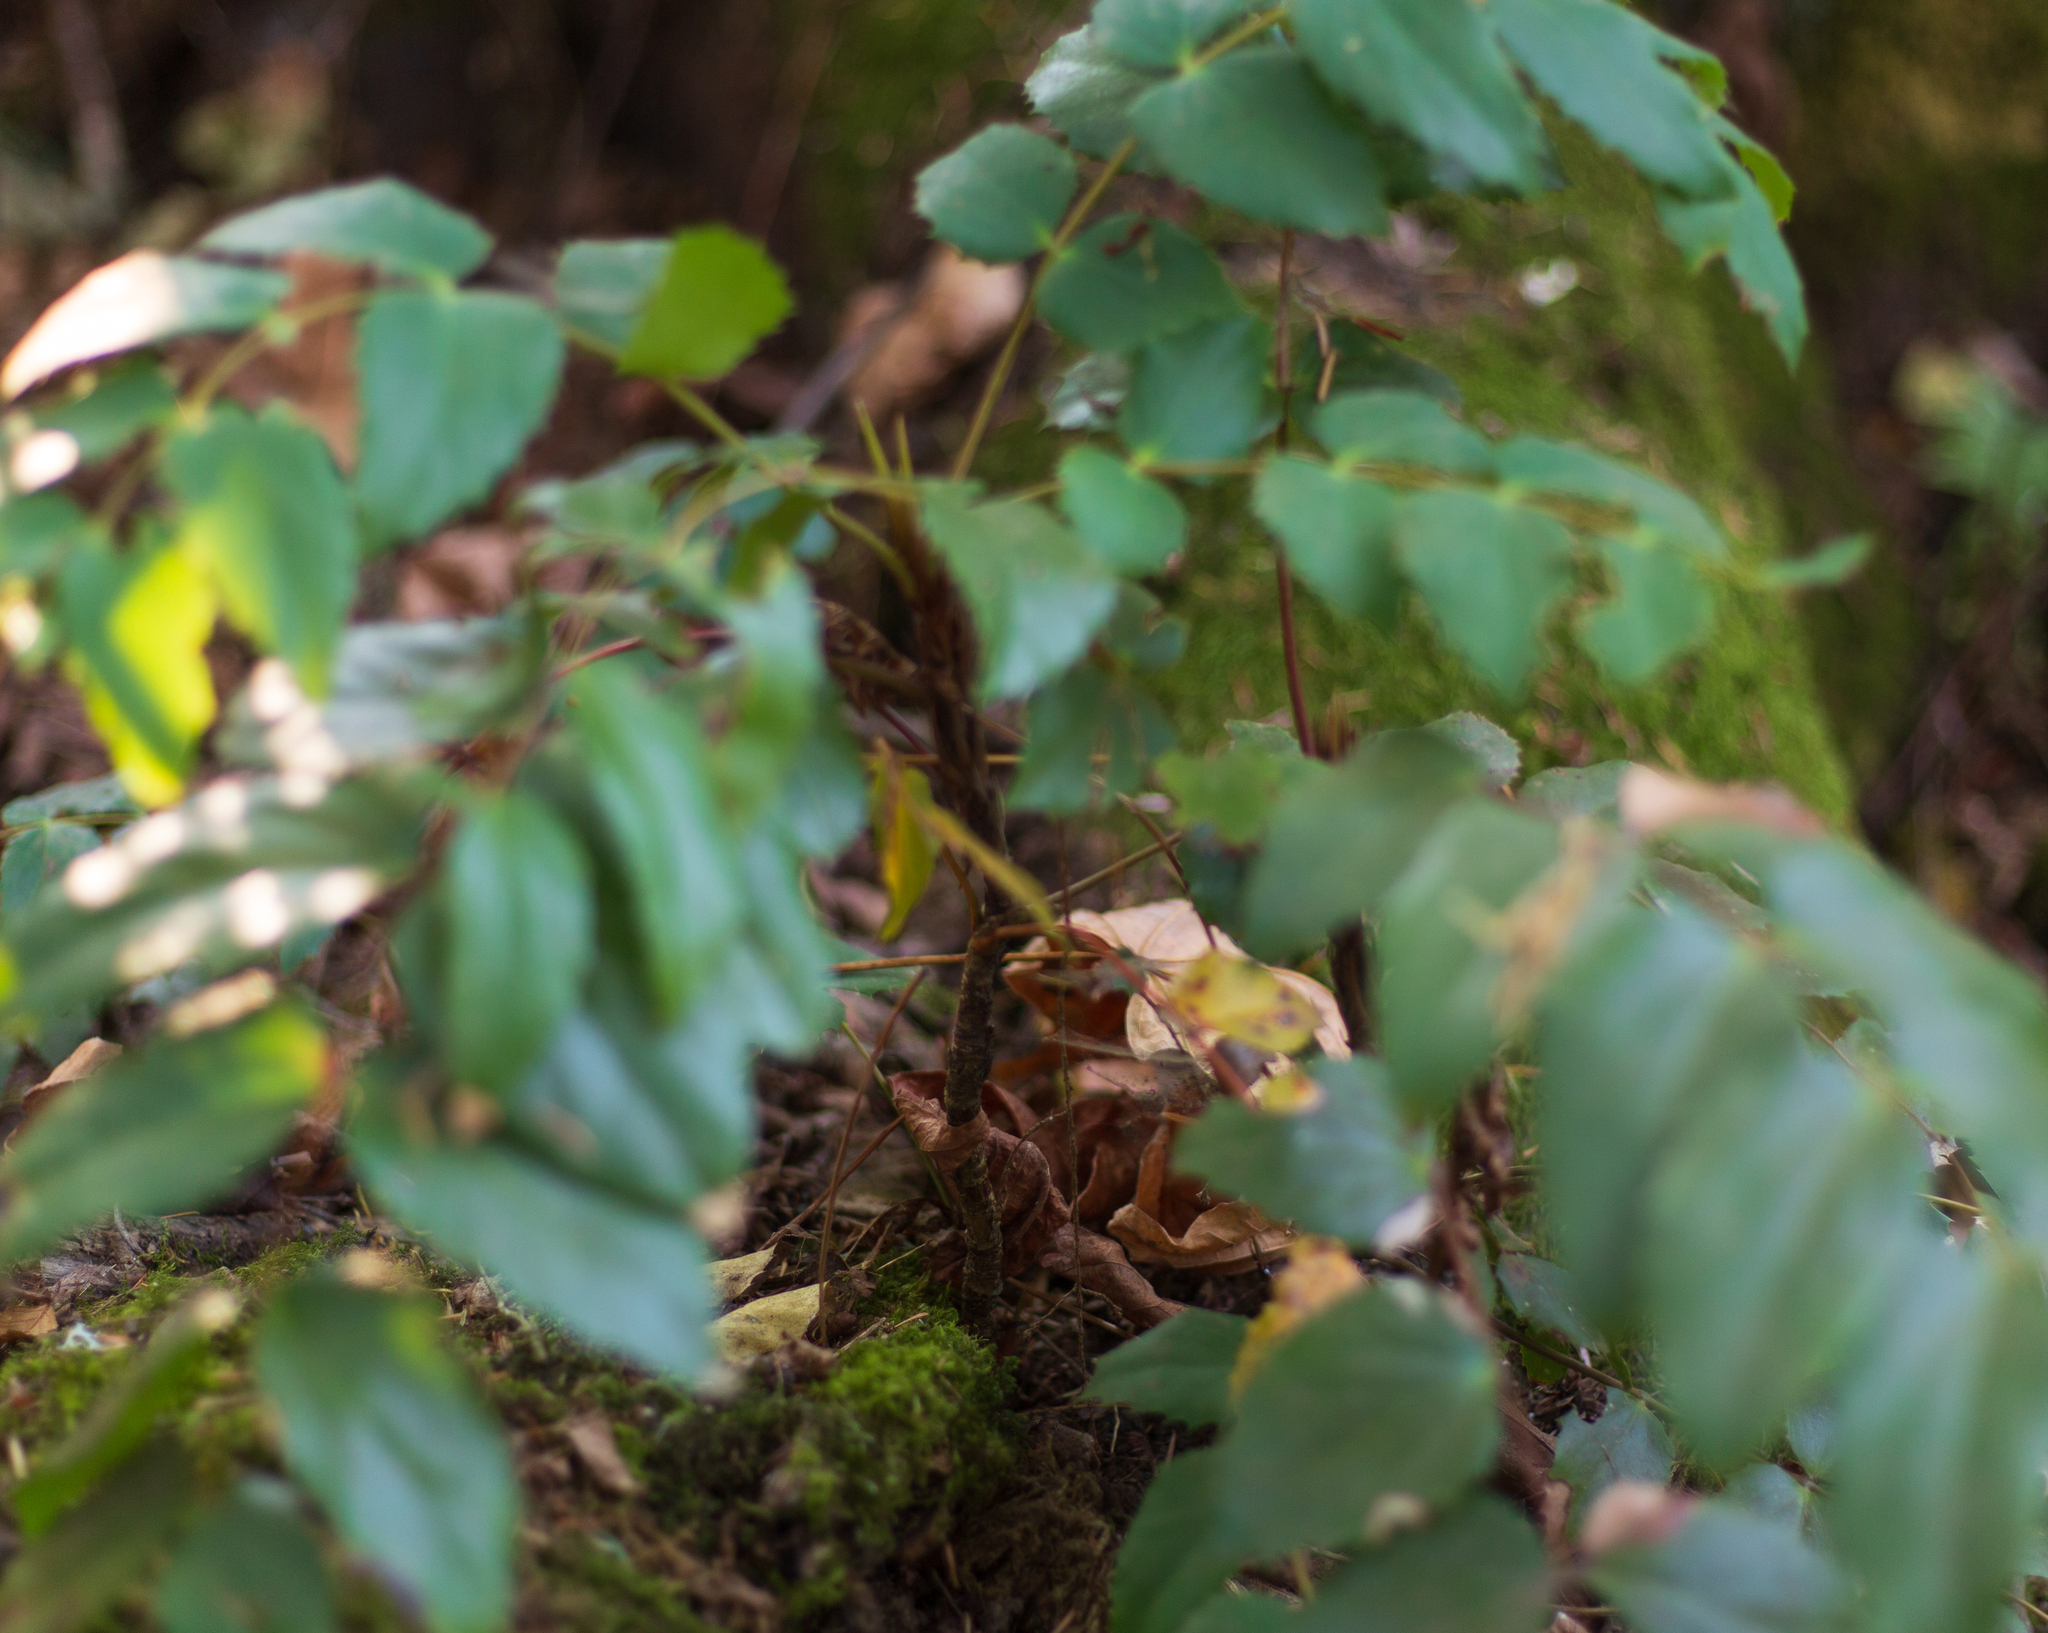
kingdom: Plantae
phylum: Tracheophyta
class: Magnoliopsida
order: Ranunculales
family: Berberidaceae
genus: Mahonia
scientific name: Mahonia nervosa
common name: Cascade oregon-grape
